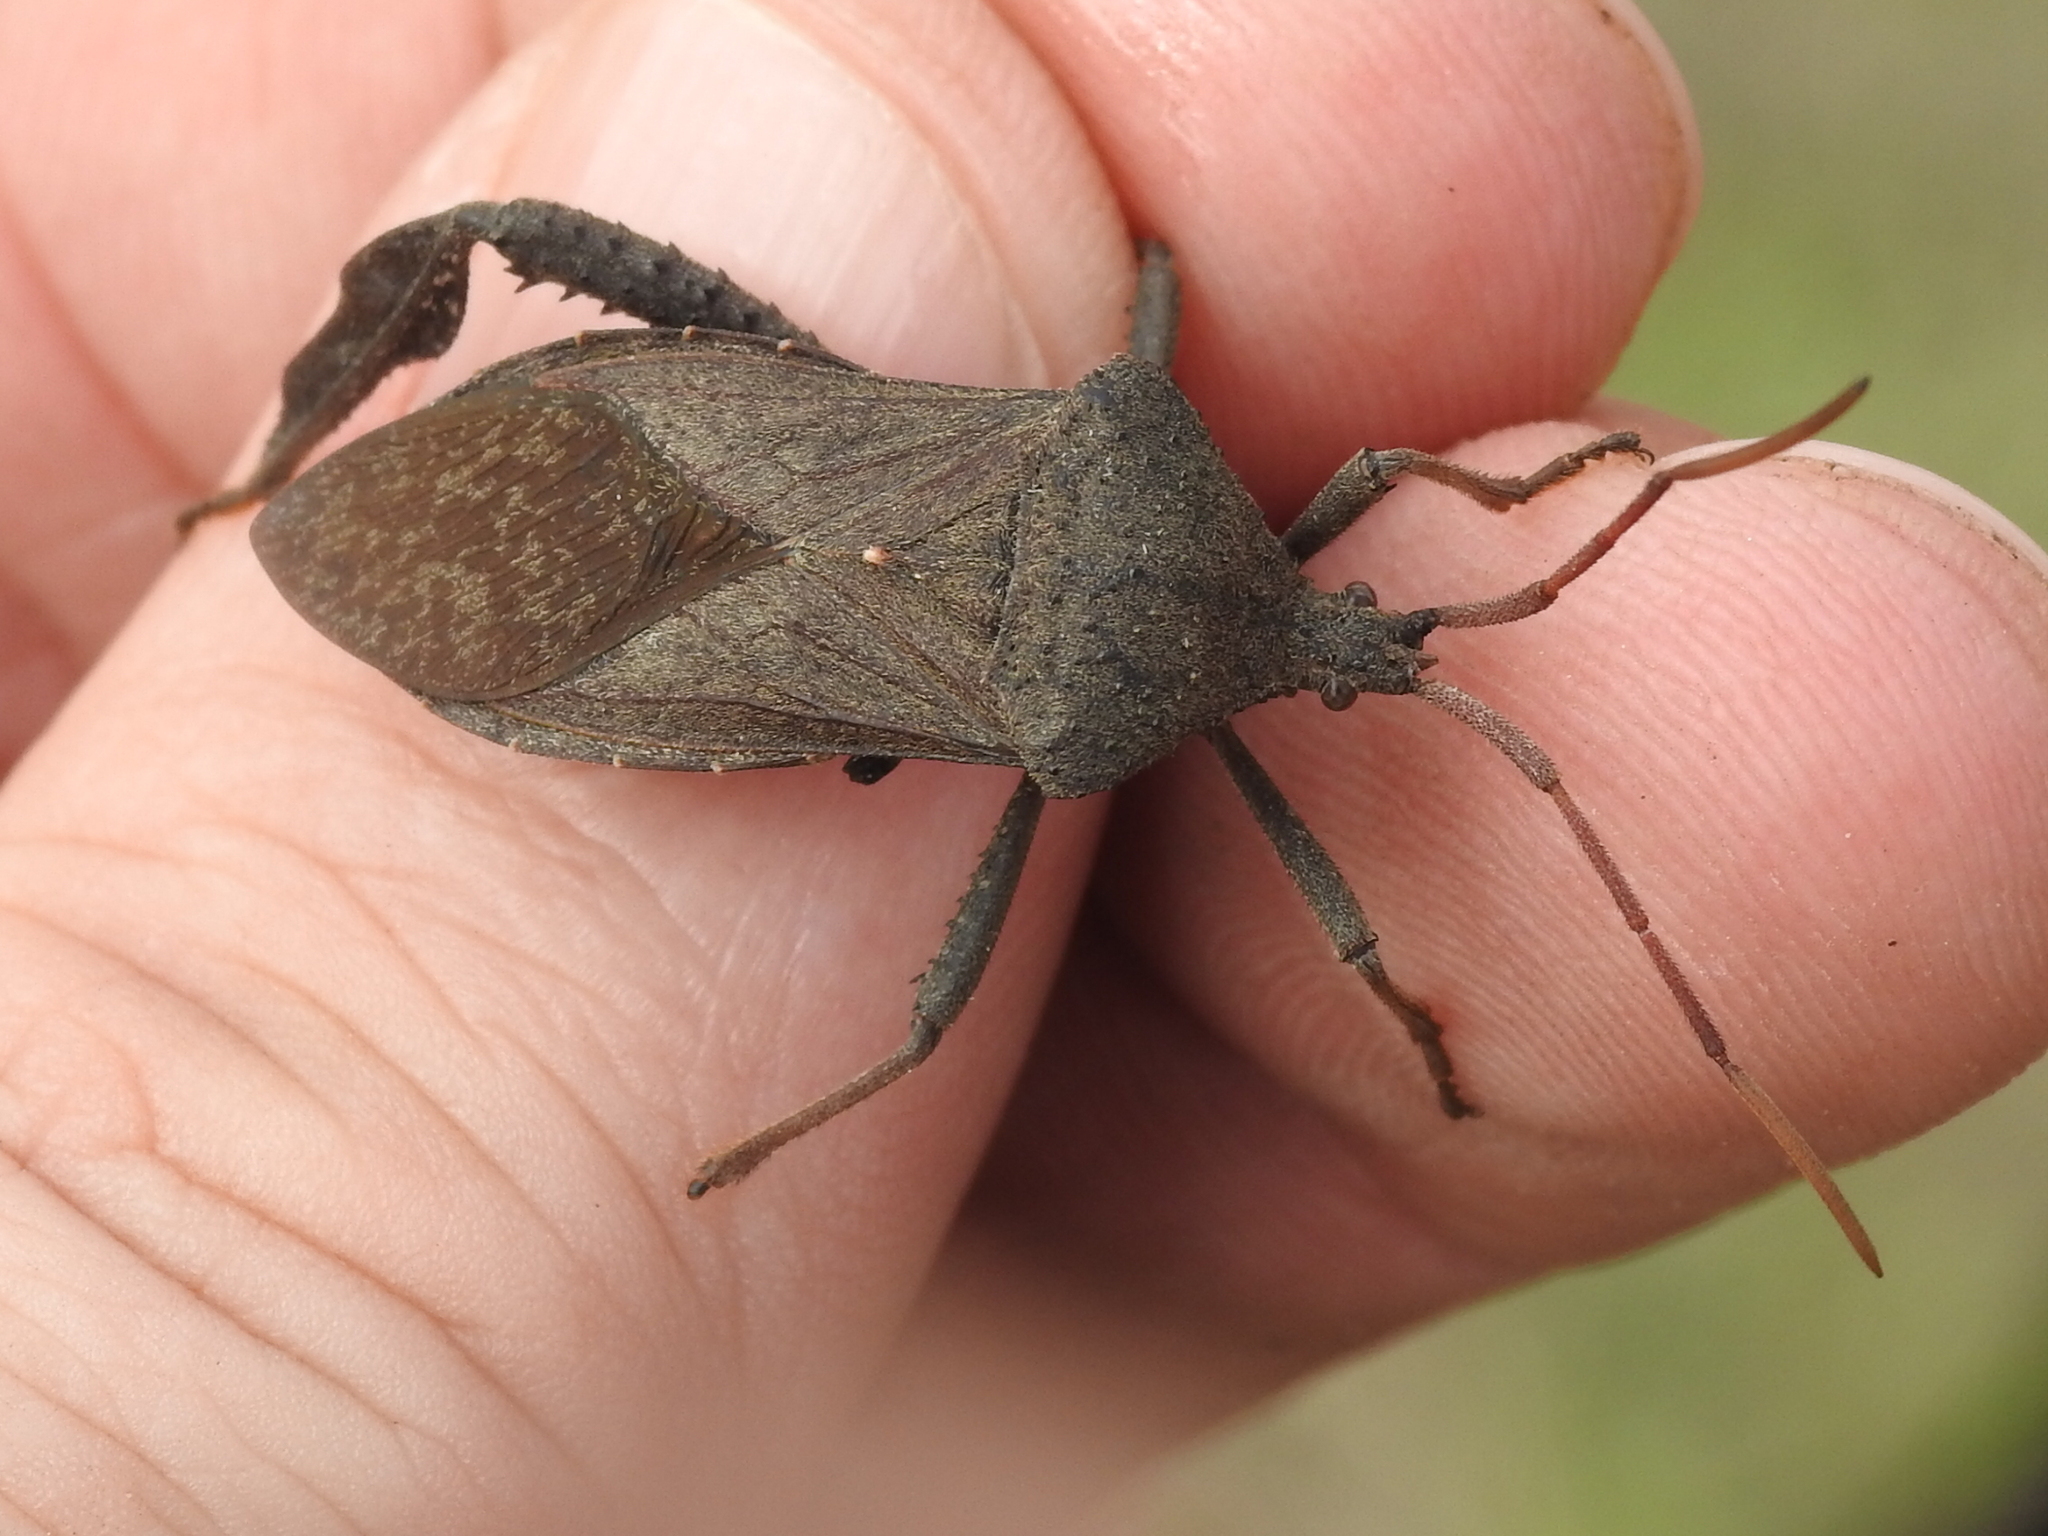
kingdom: Animalia
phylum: Arthropoda
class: Insecta
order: Hemiptera
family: Coreidae
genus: Acanthocephala
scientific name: Acanthocephala femorata
